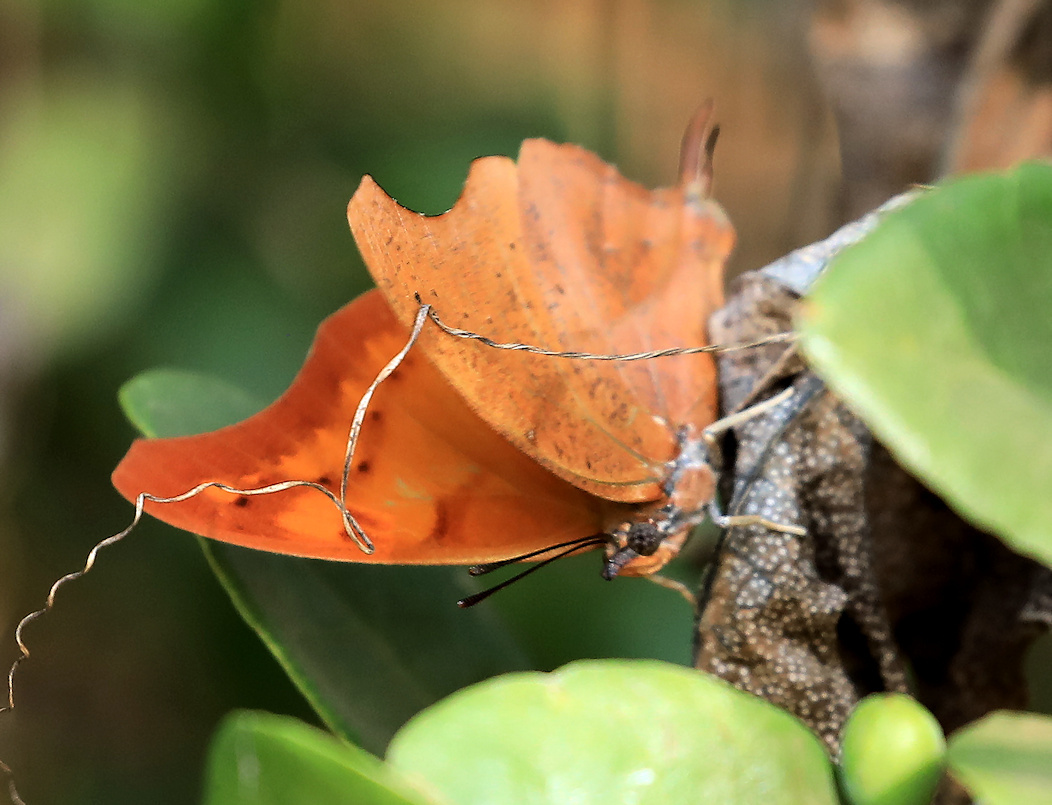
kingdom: Animalia
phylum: Arthropoda
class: Insecta
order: Lepidoptera
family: Nymphalidae
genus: Polyura
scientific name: Polyura
